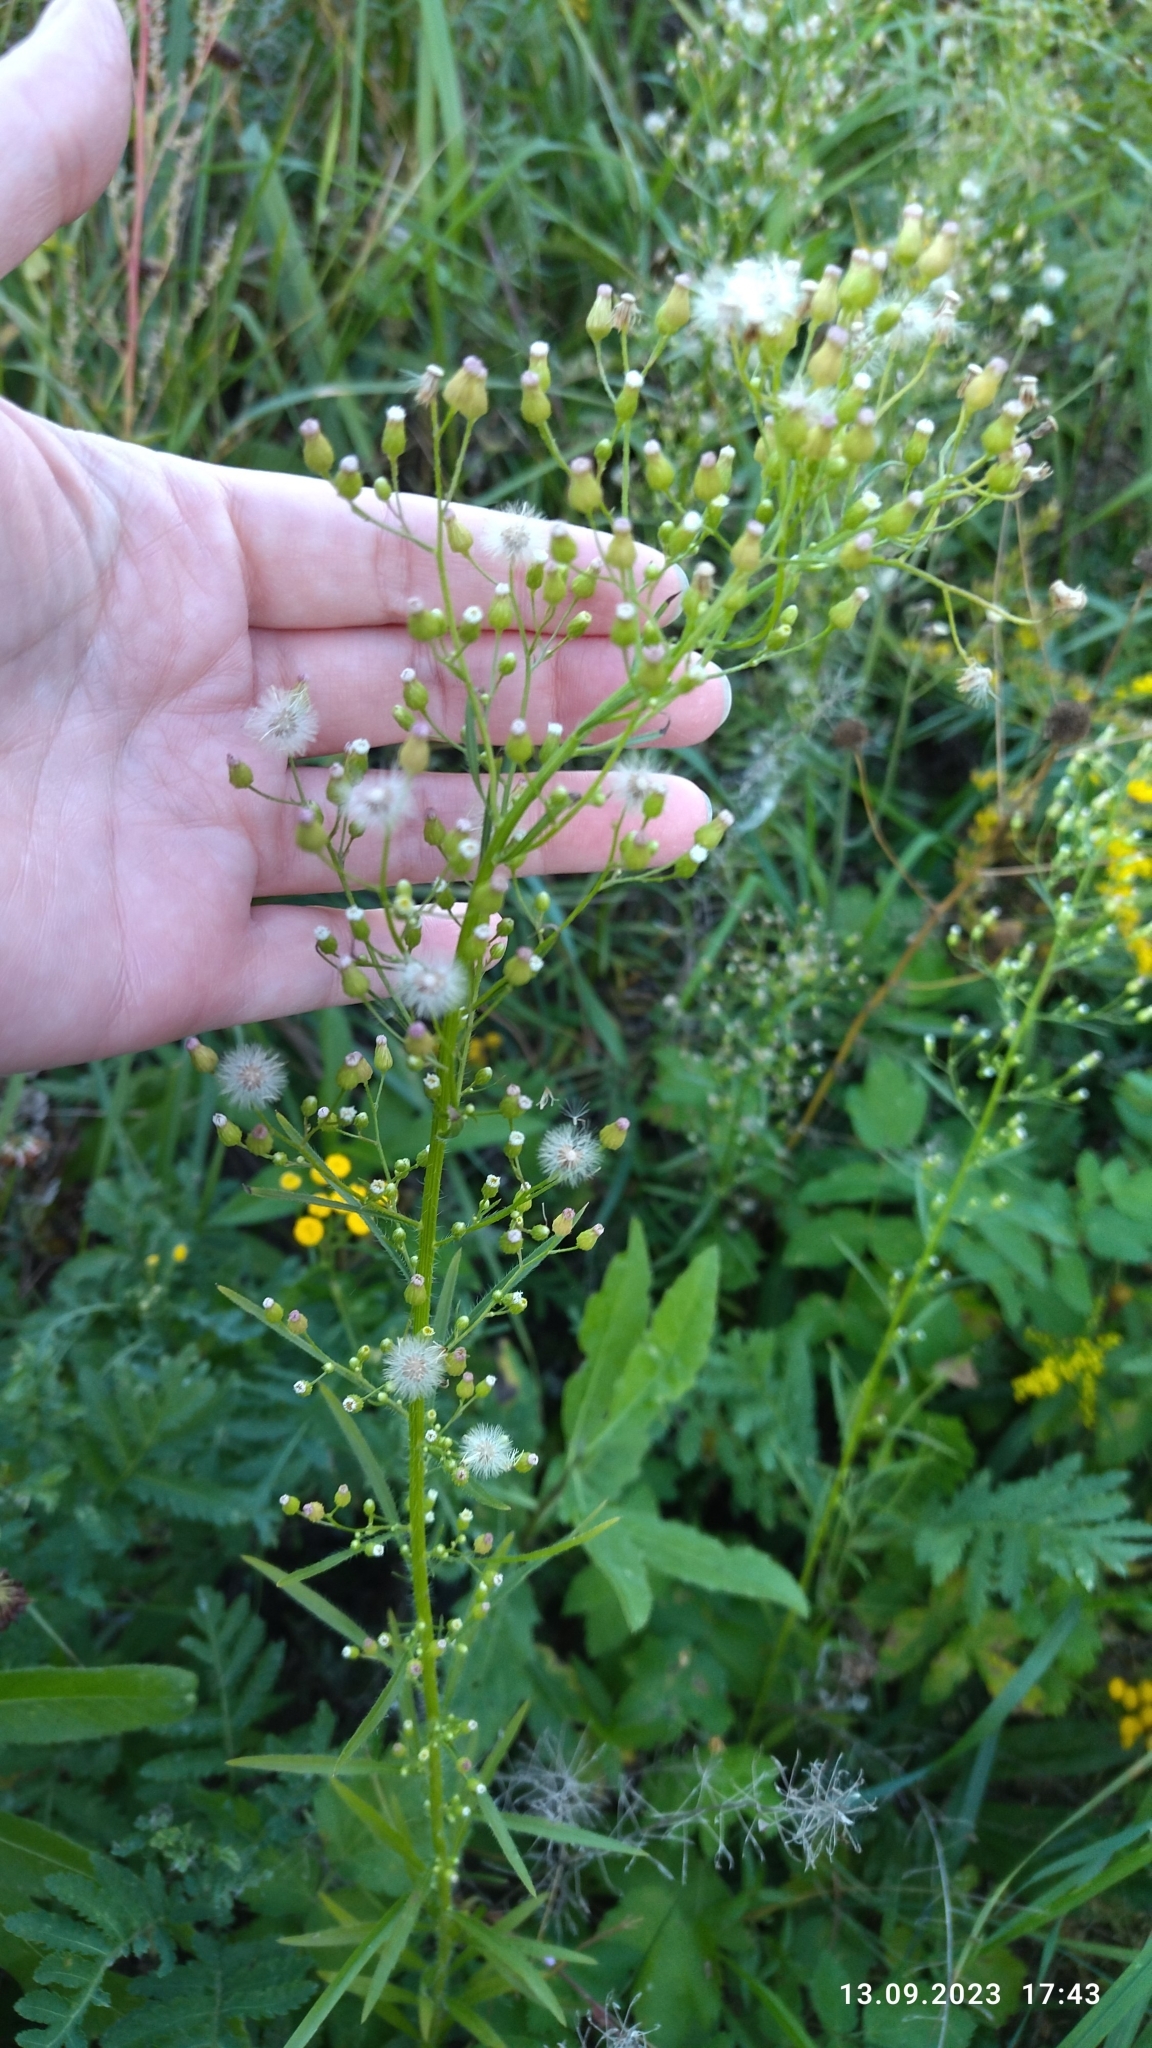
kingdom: Plantae
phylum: Tracheophyta
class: Magnoliopsida
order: Asterales
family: Asteraceae
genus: Erigeron
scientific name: Erigeron canadensis
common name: Canadian fleabane
